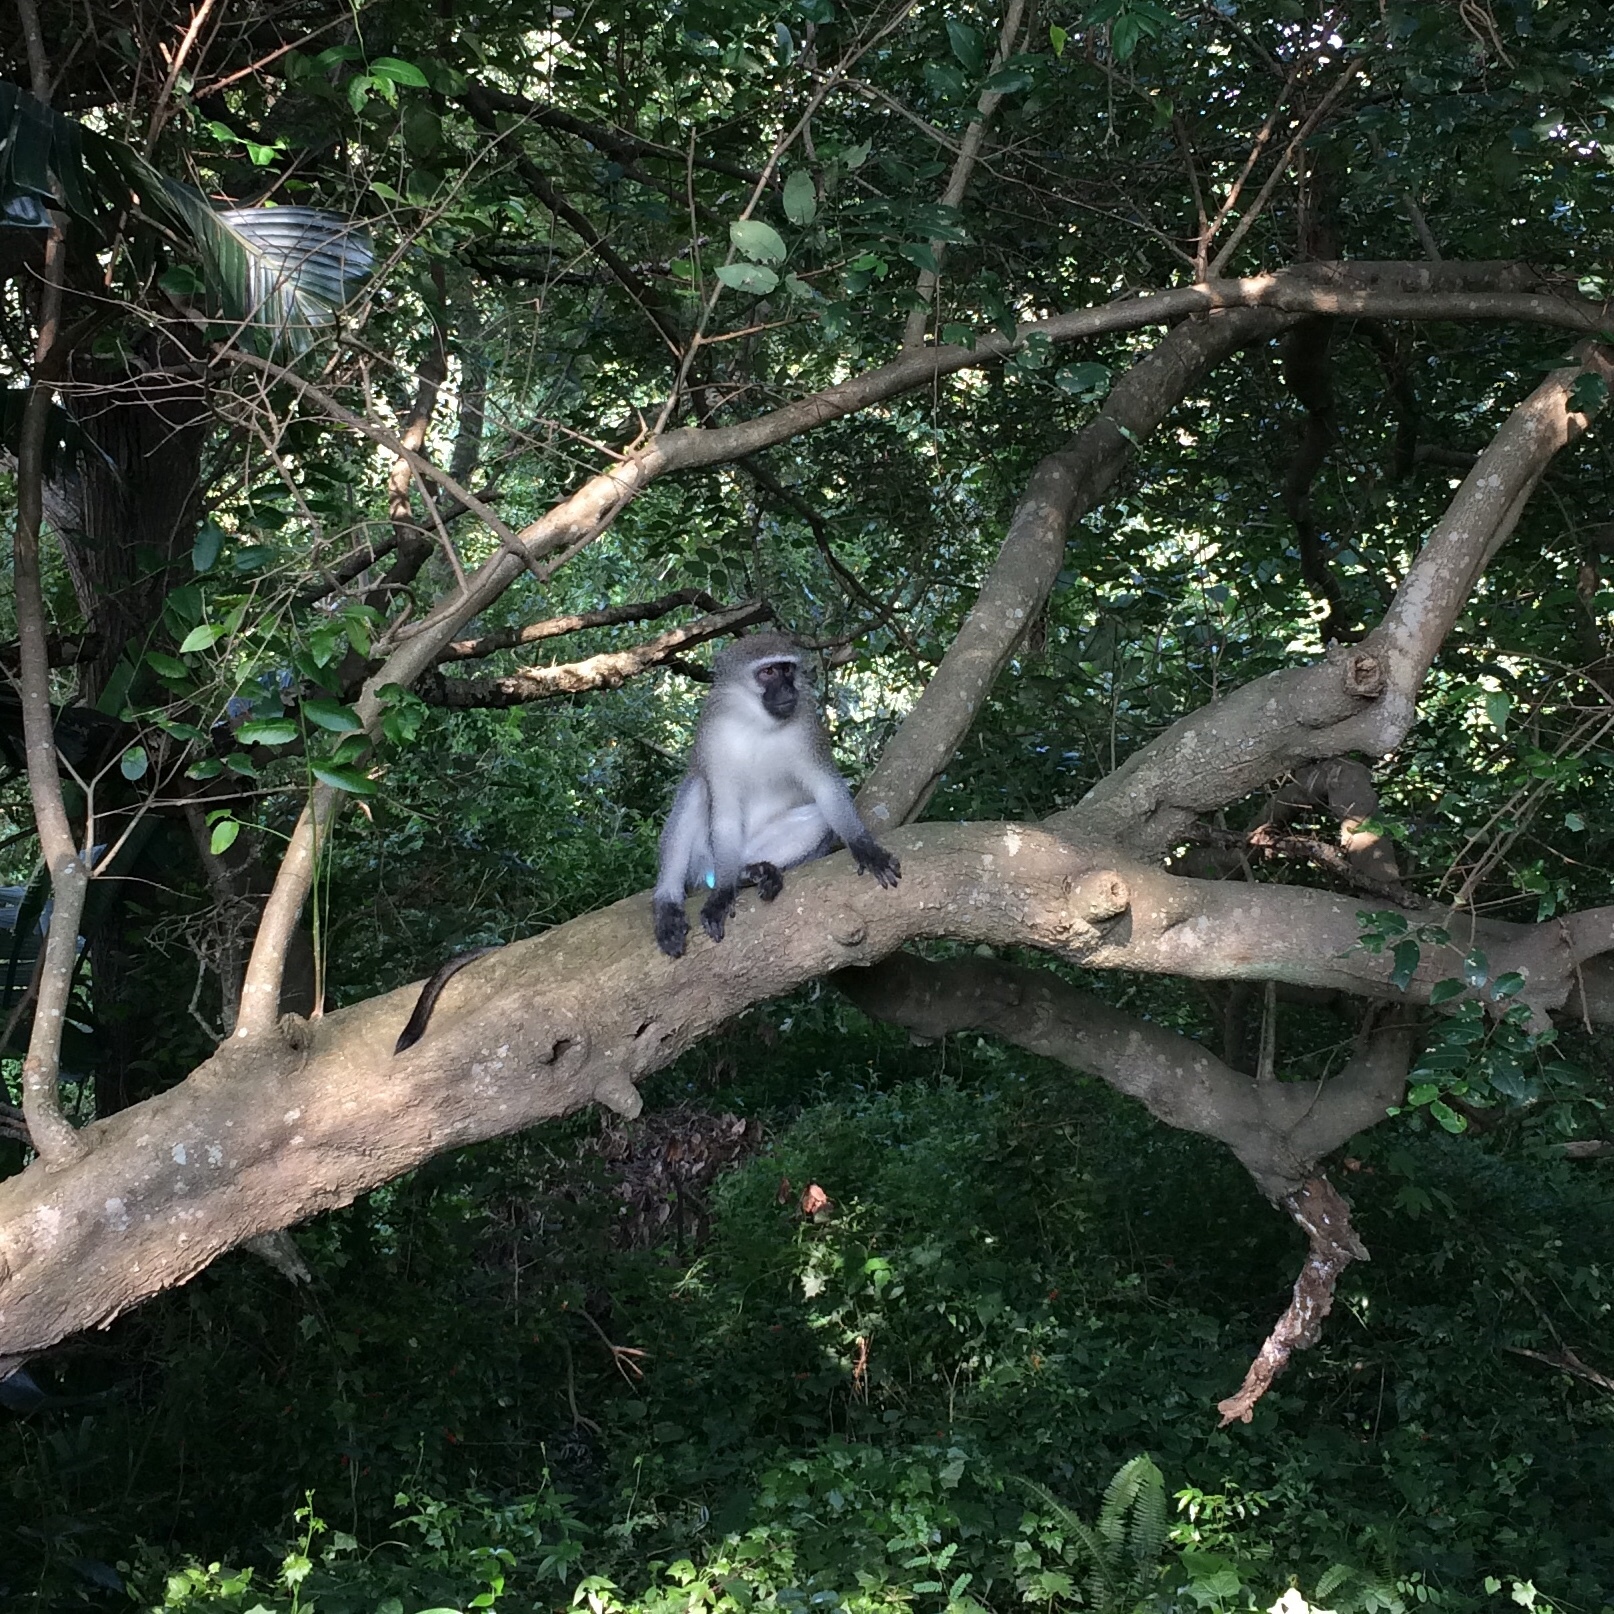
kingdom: Animalia
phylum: Chordata
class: Mammalia
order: Primates
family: Cercopithecidae
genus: Chlorocebus
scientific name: Chlorocebus pygerythrus
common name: Vervet monkey
